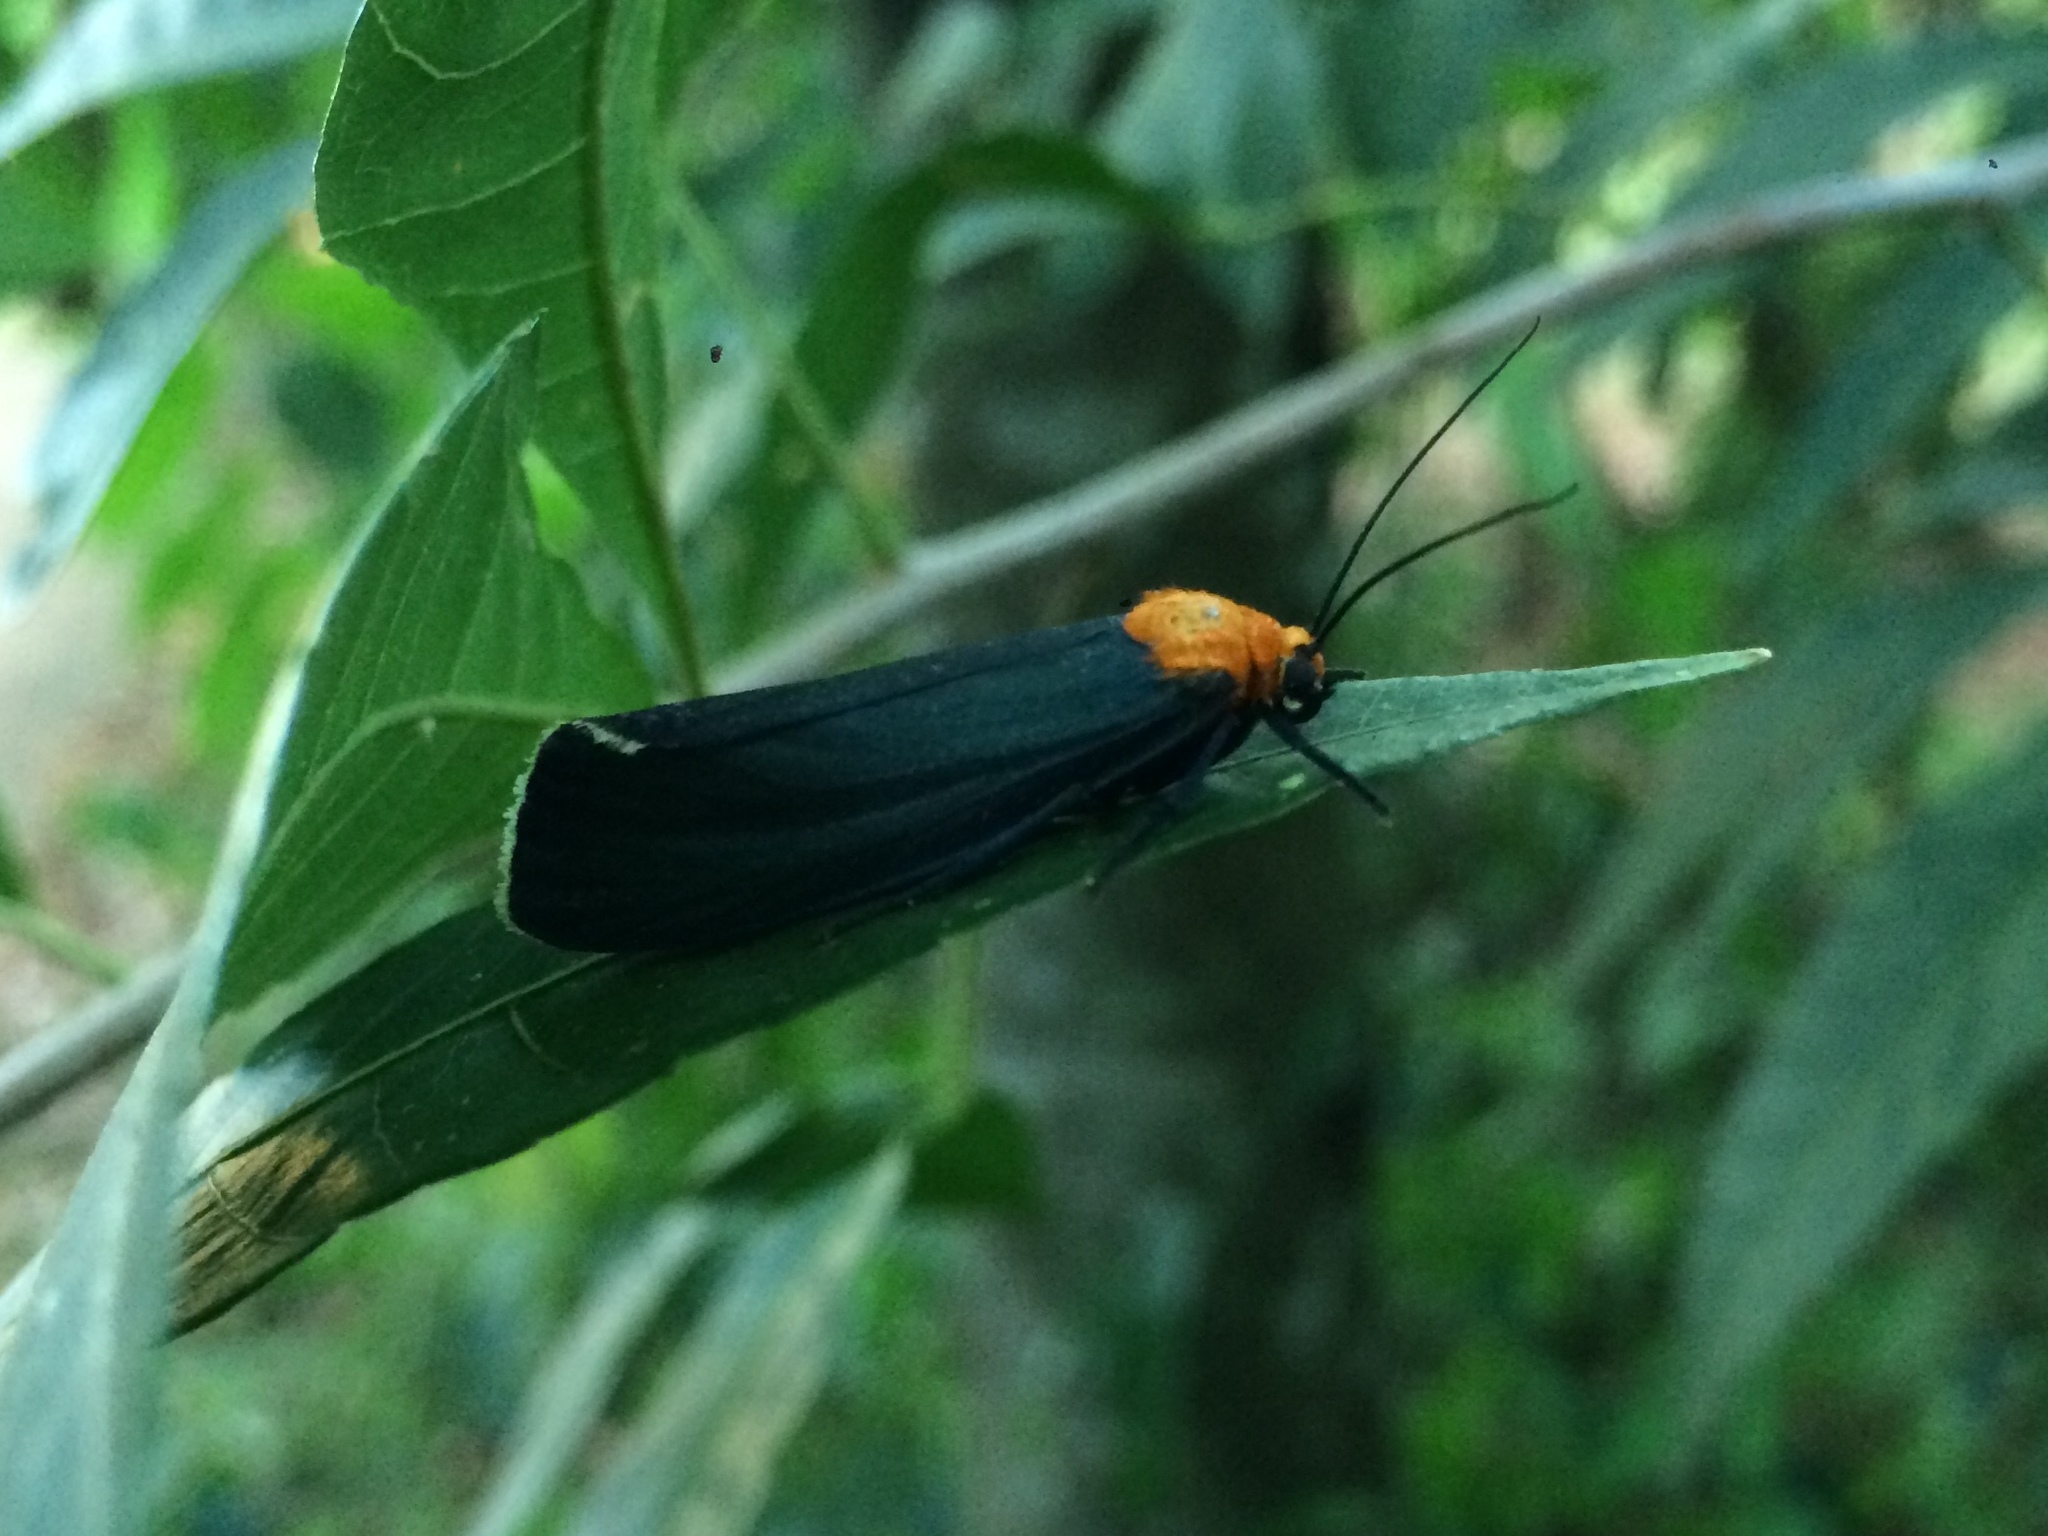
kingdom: Animalia
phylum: Arthropoda
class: Insecta
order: Lepidoptera
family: Erebidae
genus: Apistosia
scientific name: Apistosia judas
